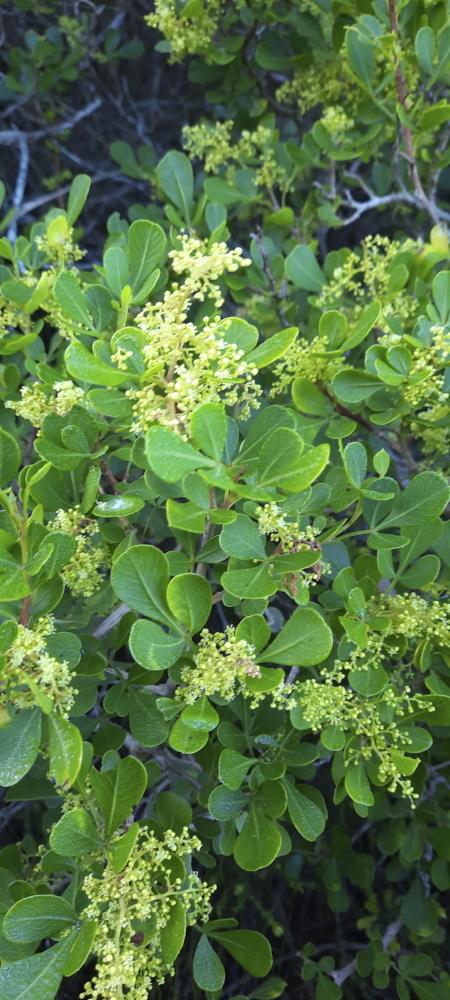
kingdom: Plantae
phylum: Tracheophyta
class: Magnoliopsida
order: Sapindales
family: Anacardiaceae
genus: Searsia
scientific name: Searsia lucida
